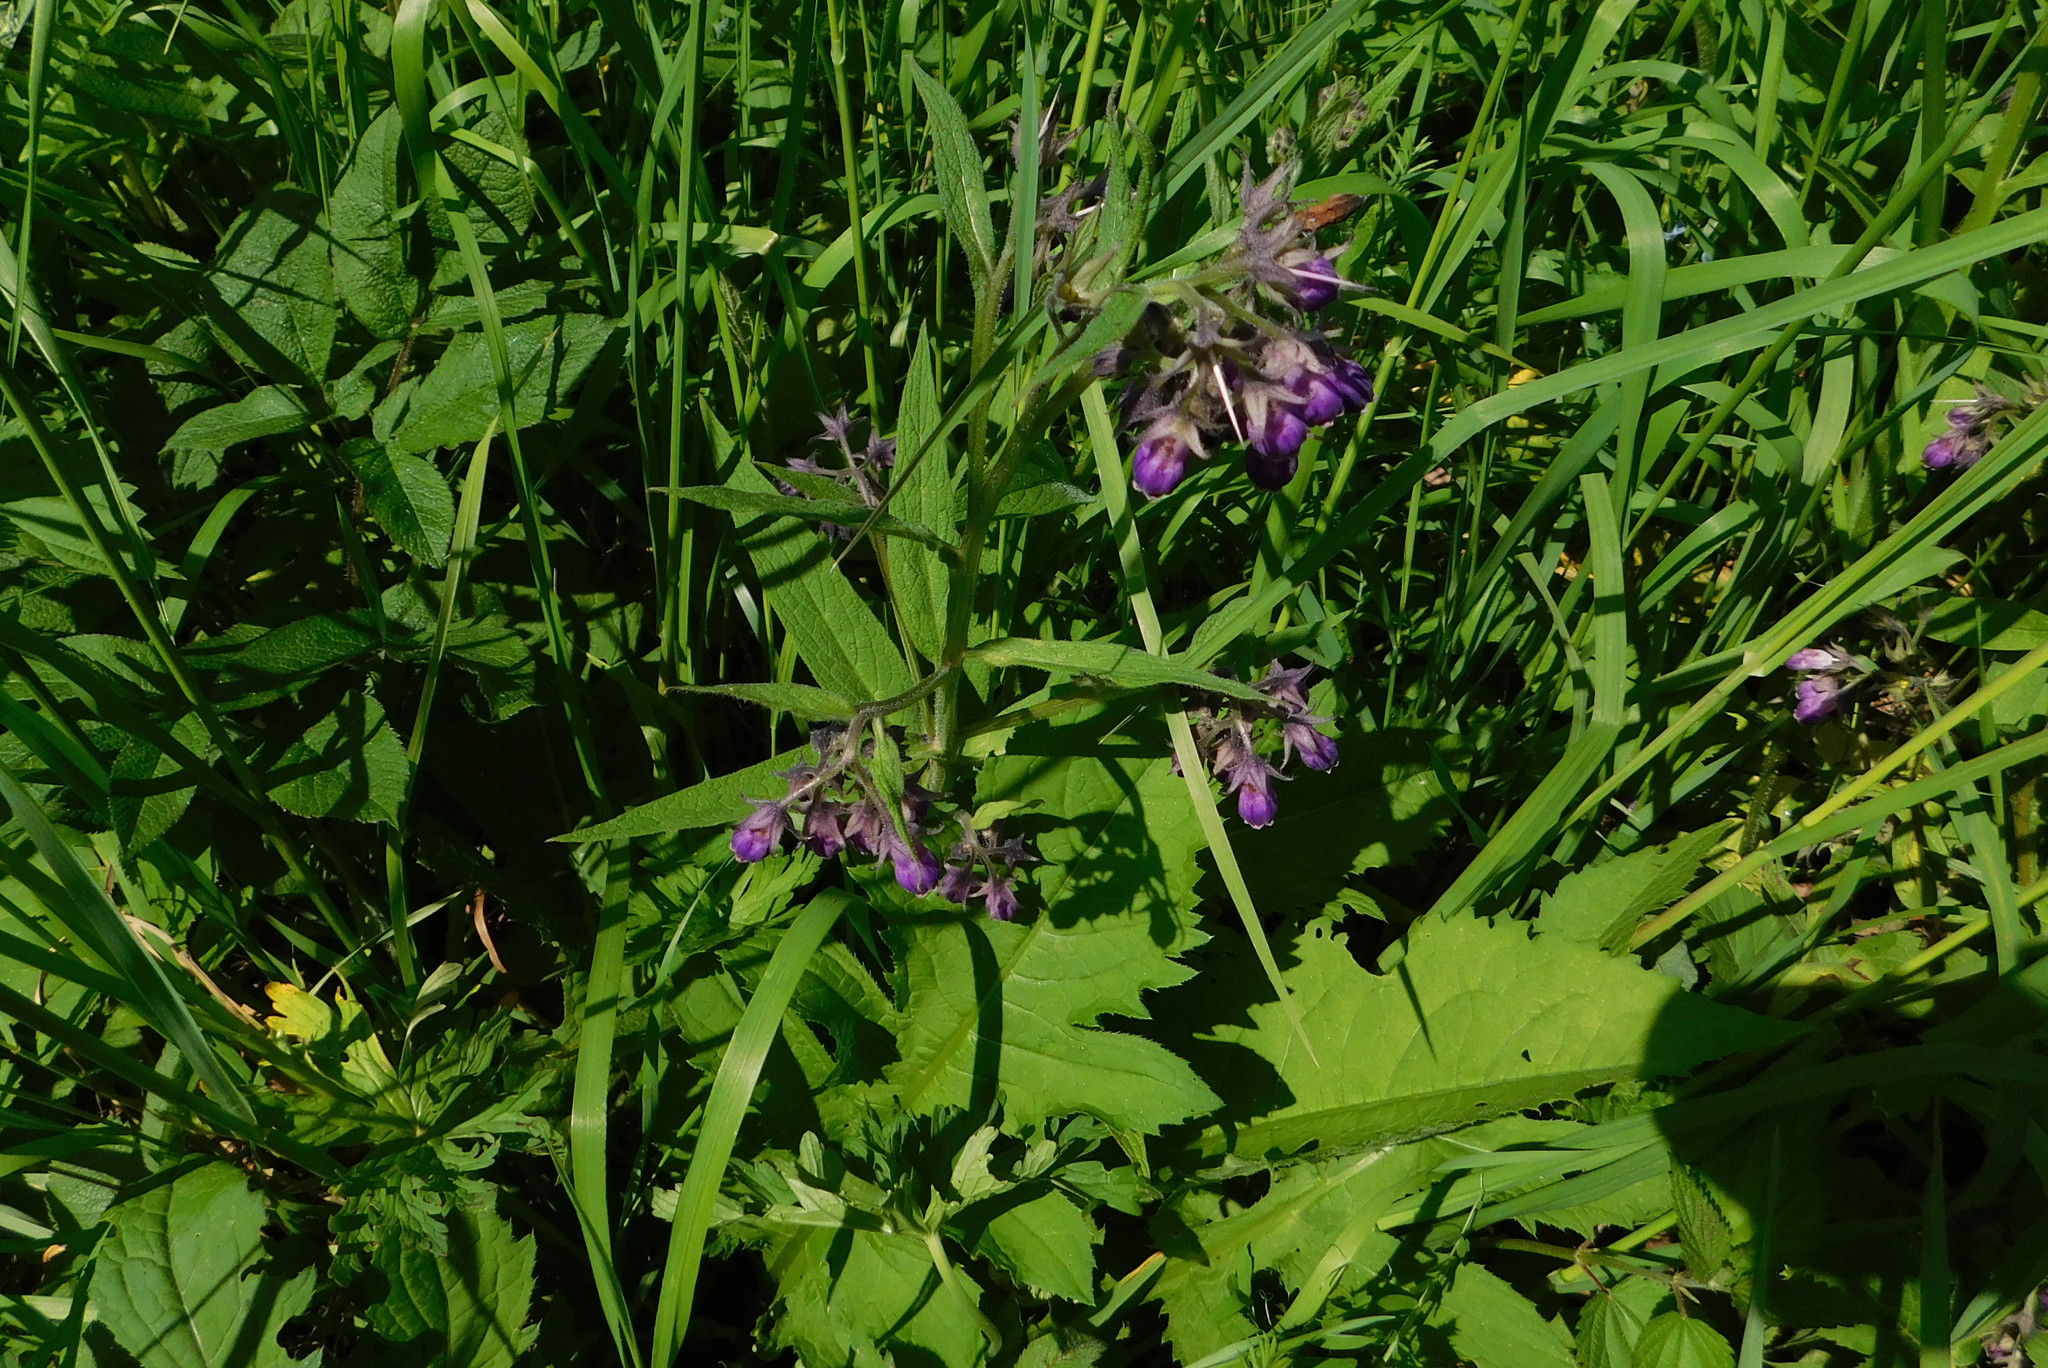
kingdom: Plantae
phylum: Tracheophyta
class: Magnoliopsida
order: Boraginales
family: Boraginaceae
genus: Symphytum
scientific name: Symphytum officinale
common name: Common comfrey
